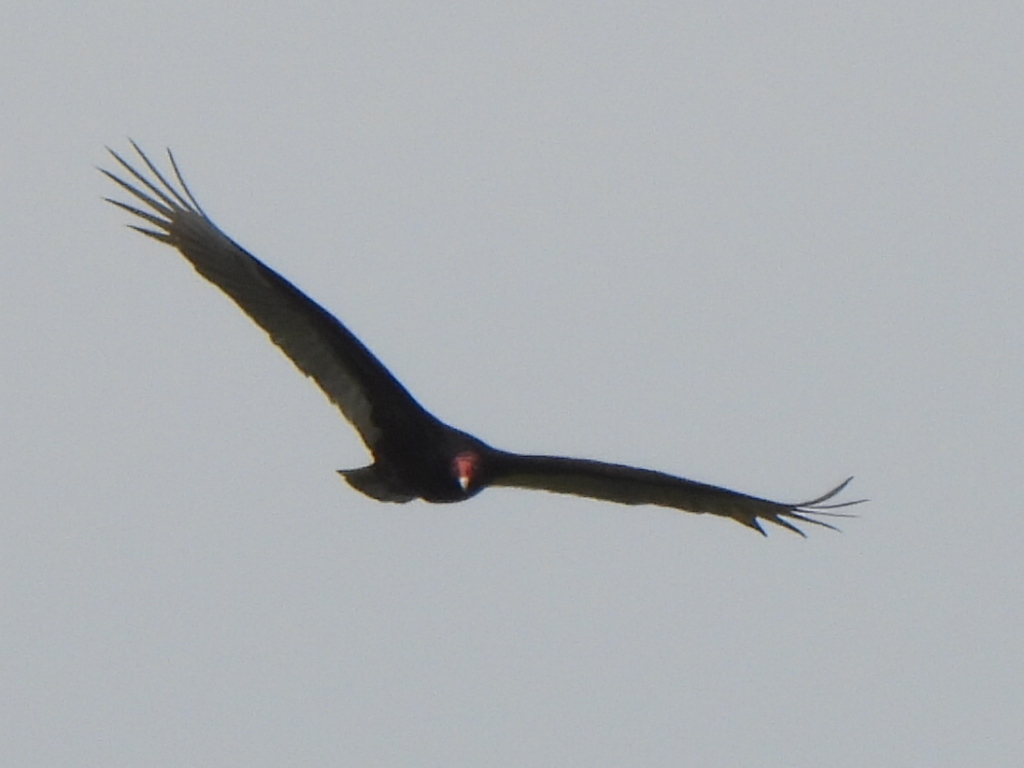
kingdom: Animalia
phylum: Chordata
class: Aves
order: Accipitriformes
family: Cathartidae
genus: Cathartes
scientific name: Cathartes aura
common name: Turkey vulture
